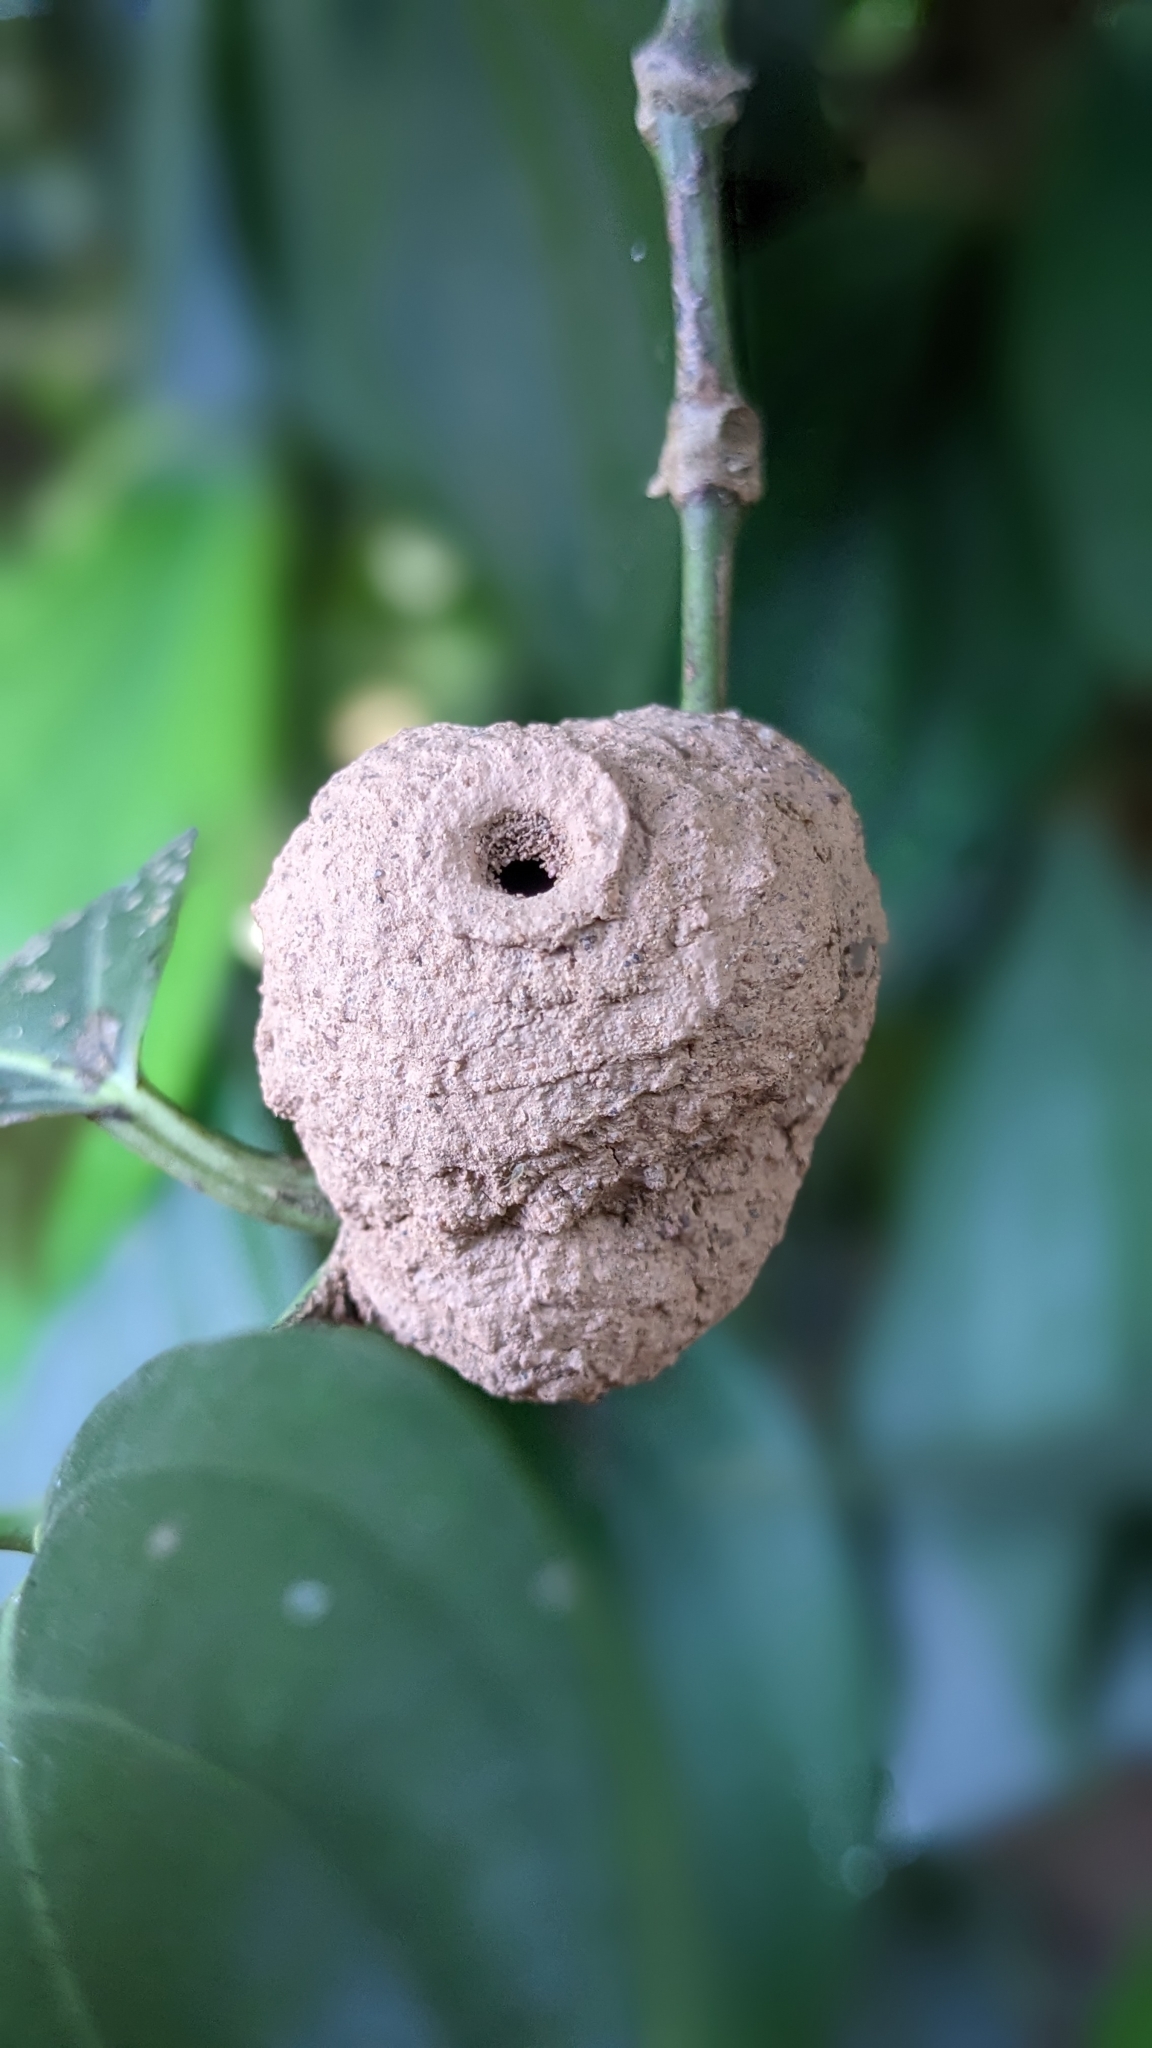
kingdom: Animalia
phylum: Arthropoda
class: Insecta
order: Hymenoptera
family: Eumenidae
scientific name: Eumenidae
